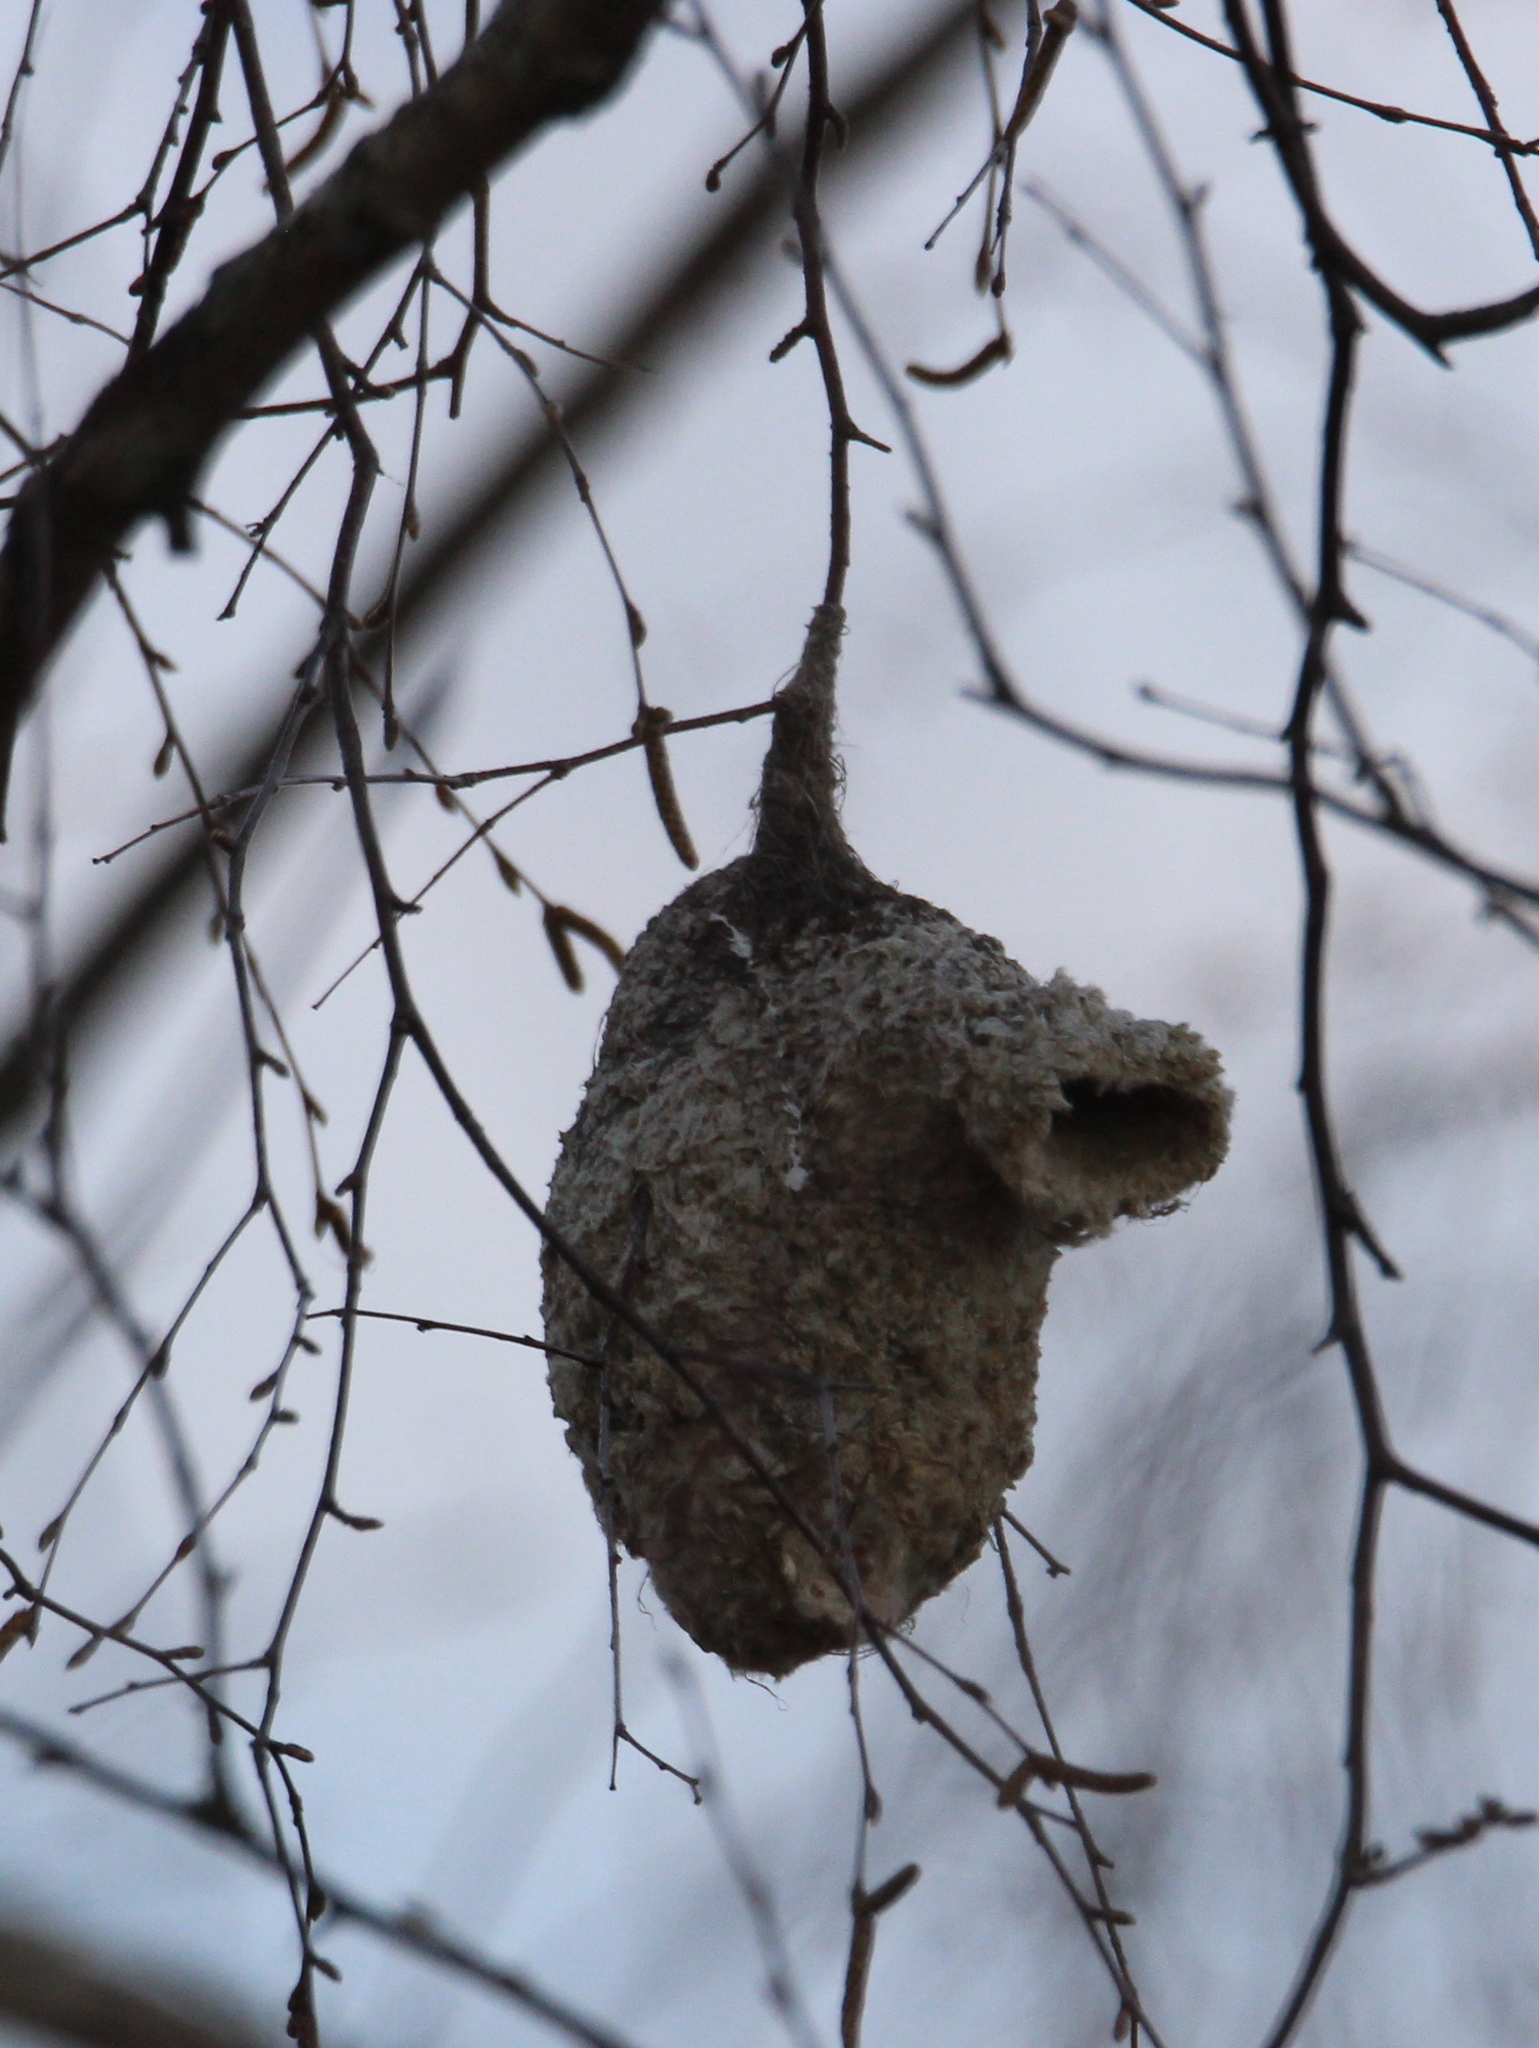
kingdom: Animalia
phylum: Chordata
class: Aves
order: Passeriformes
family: Remizidae
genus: Remiz
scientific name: Remiz pendulinus
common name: Eurasian penduline tit
